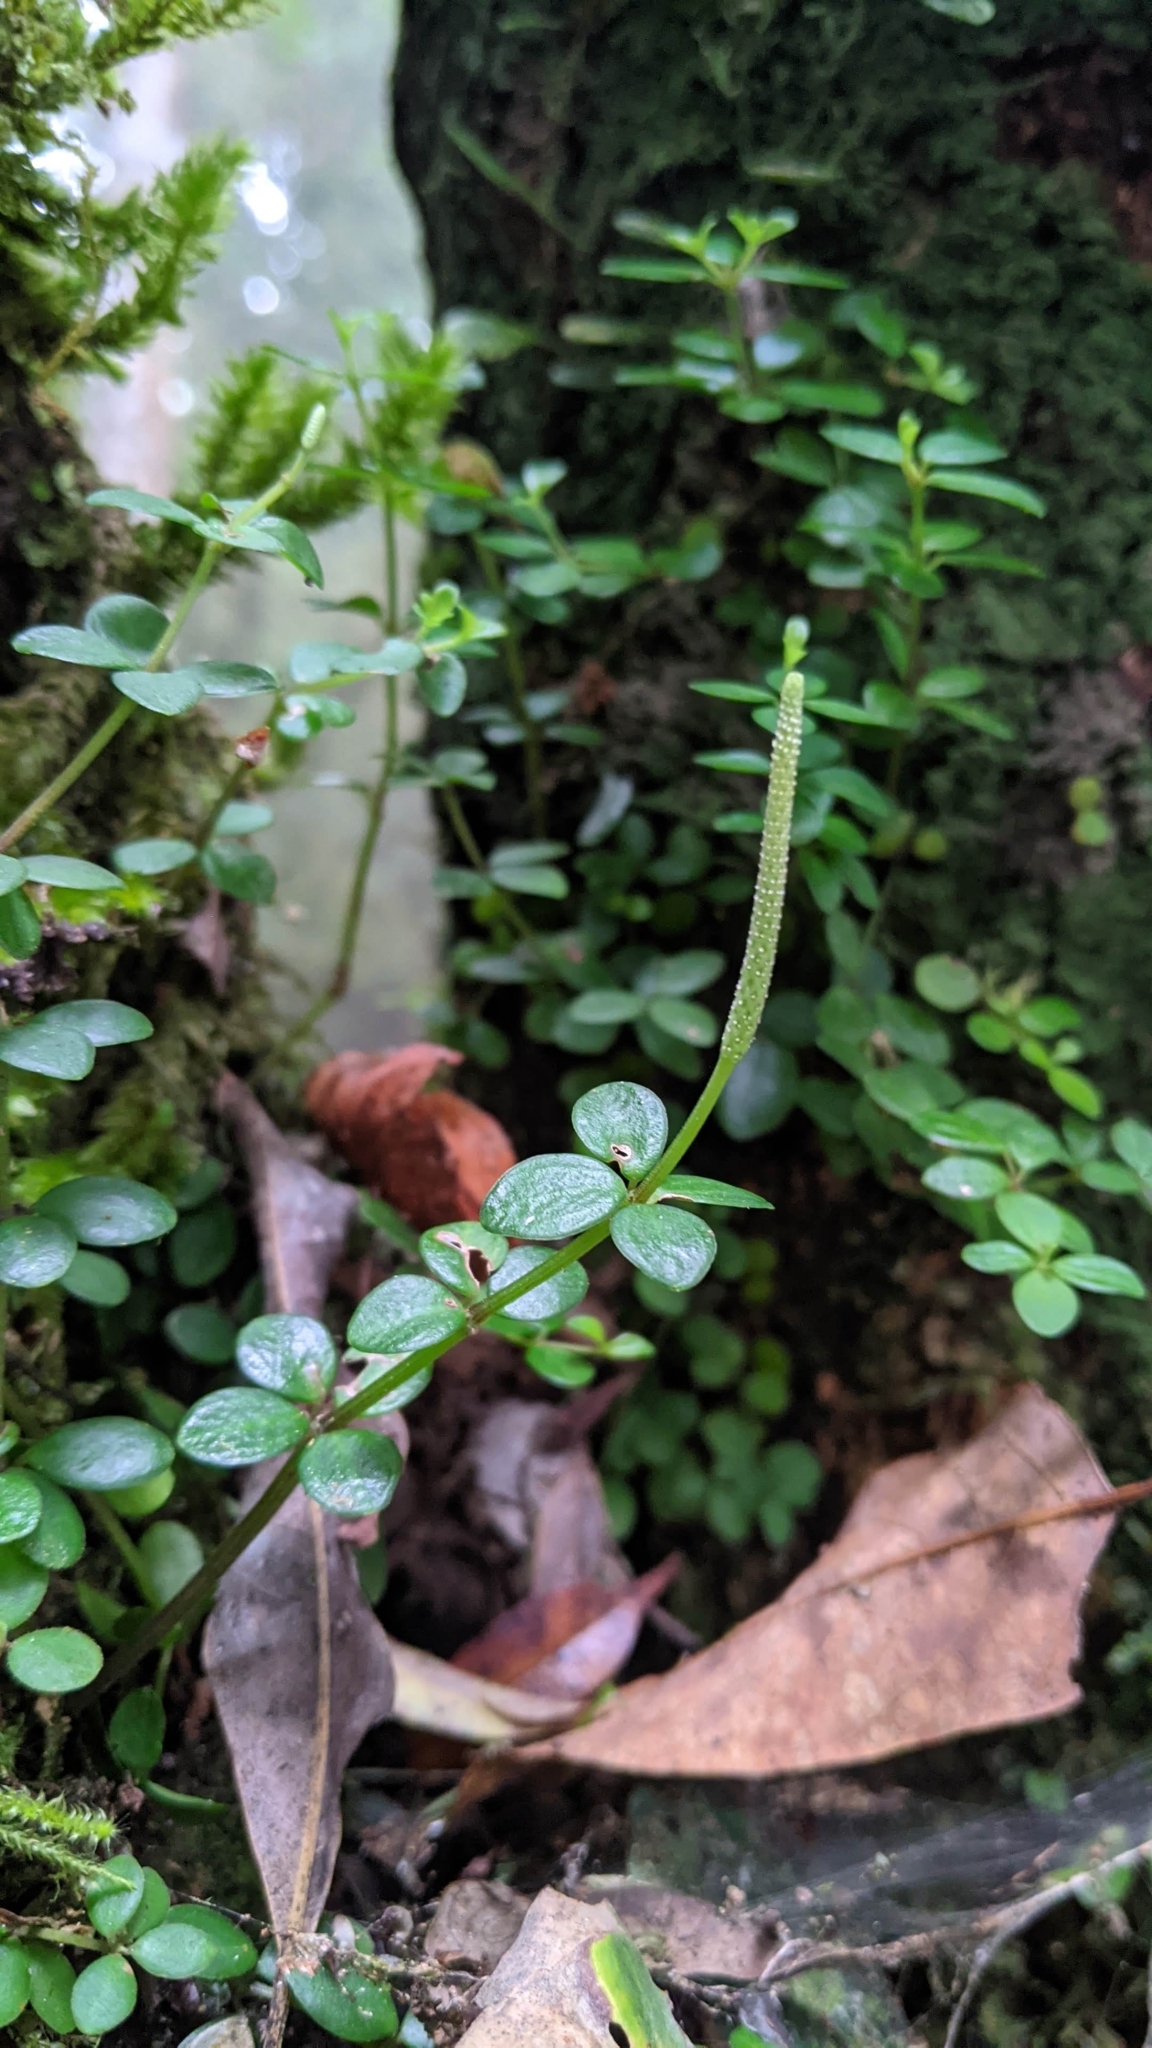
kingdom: Plantae
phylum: Tracheophyta
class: Magnoliopsida
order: Piperales
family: Piperaceae
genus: Peperomia
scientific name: Peperomia tetraphylla
